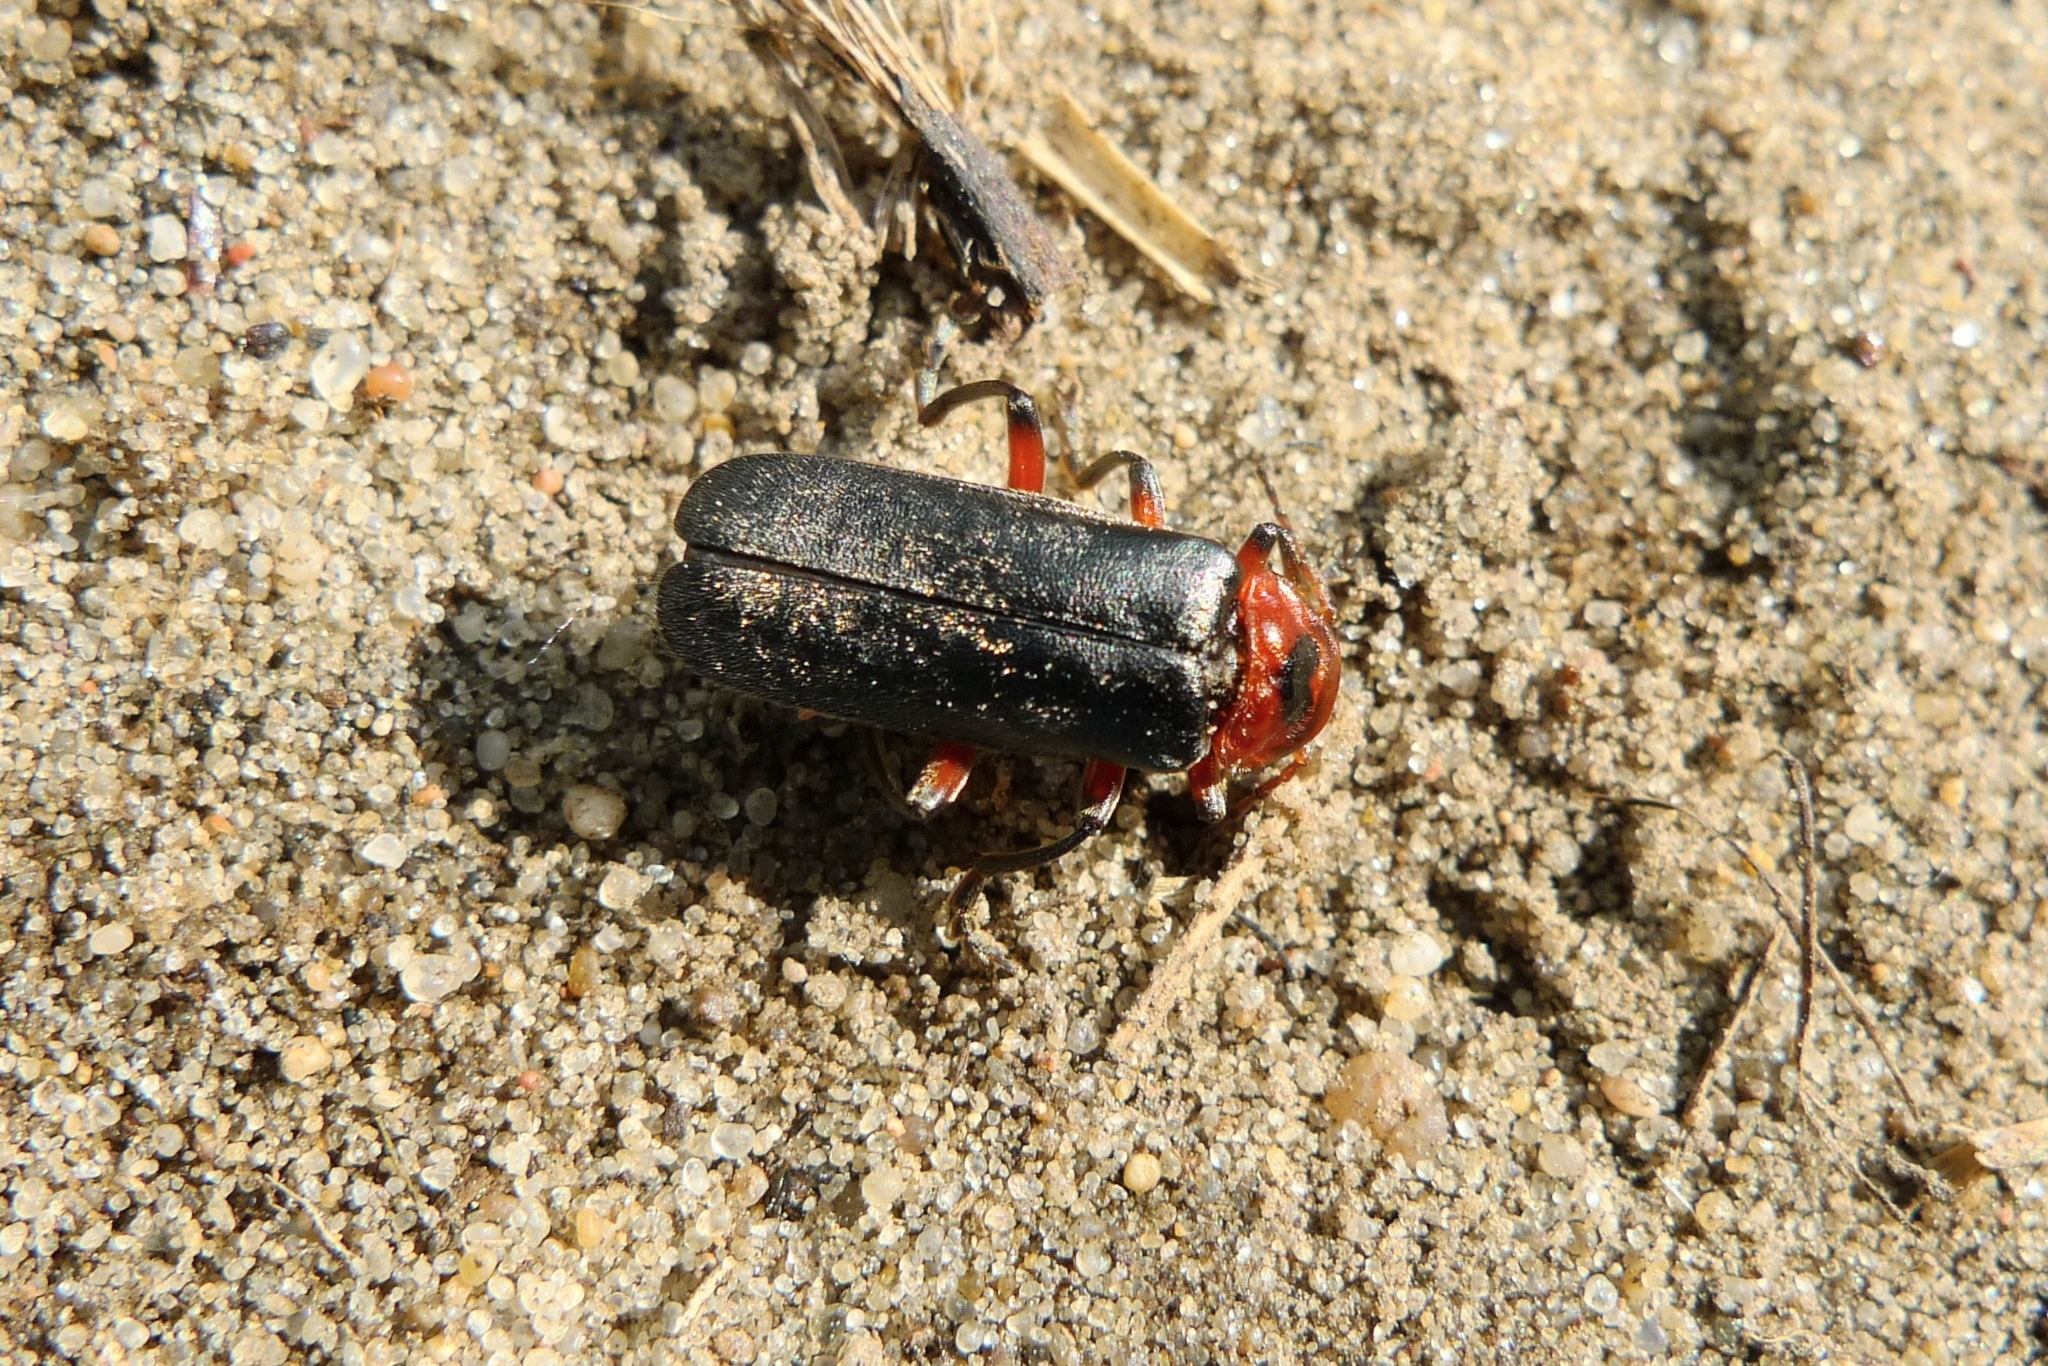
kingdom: Animalia
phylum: Arthropoda
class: Insecta
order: Coleoptera
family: Cantharidae
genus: Cantharis
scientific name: Cantharis rustica
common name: Soldier beetle
